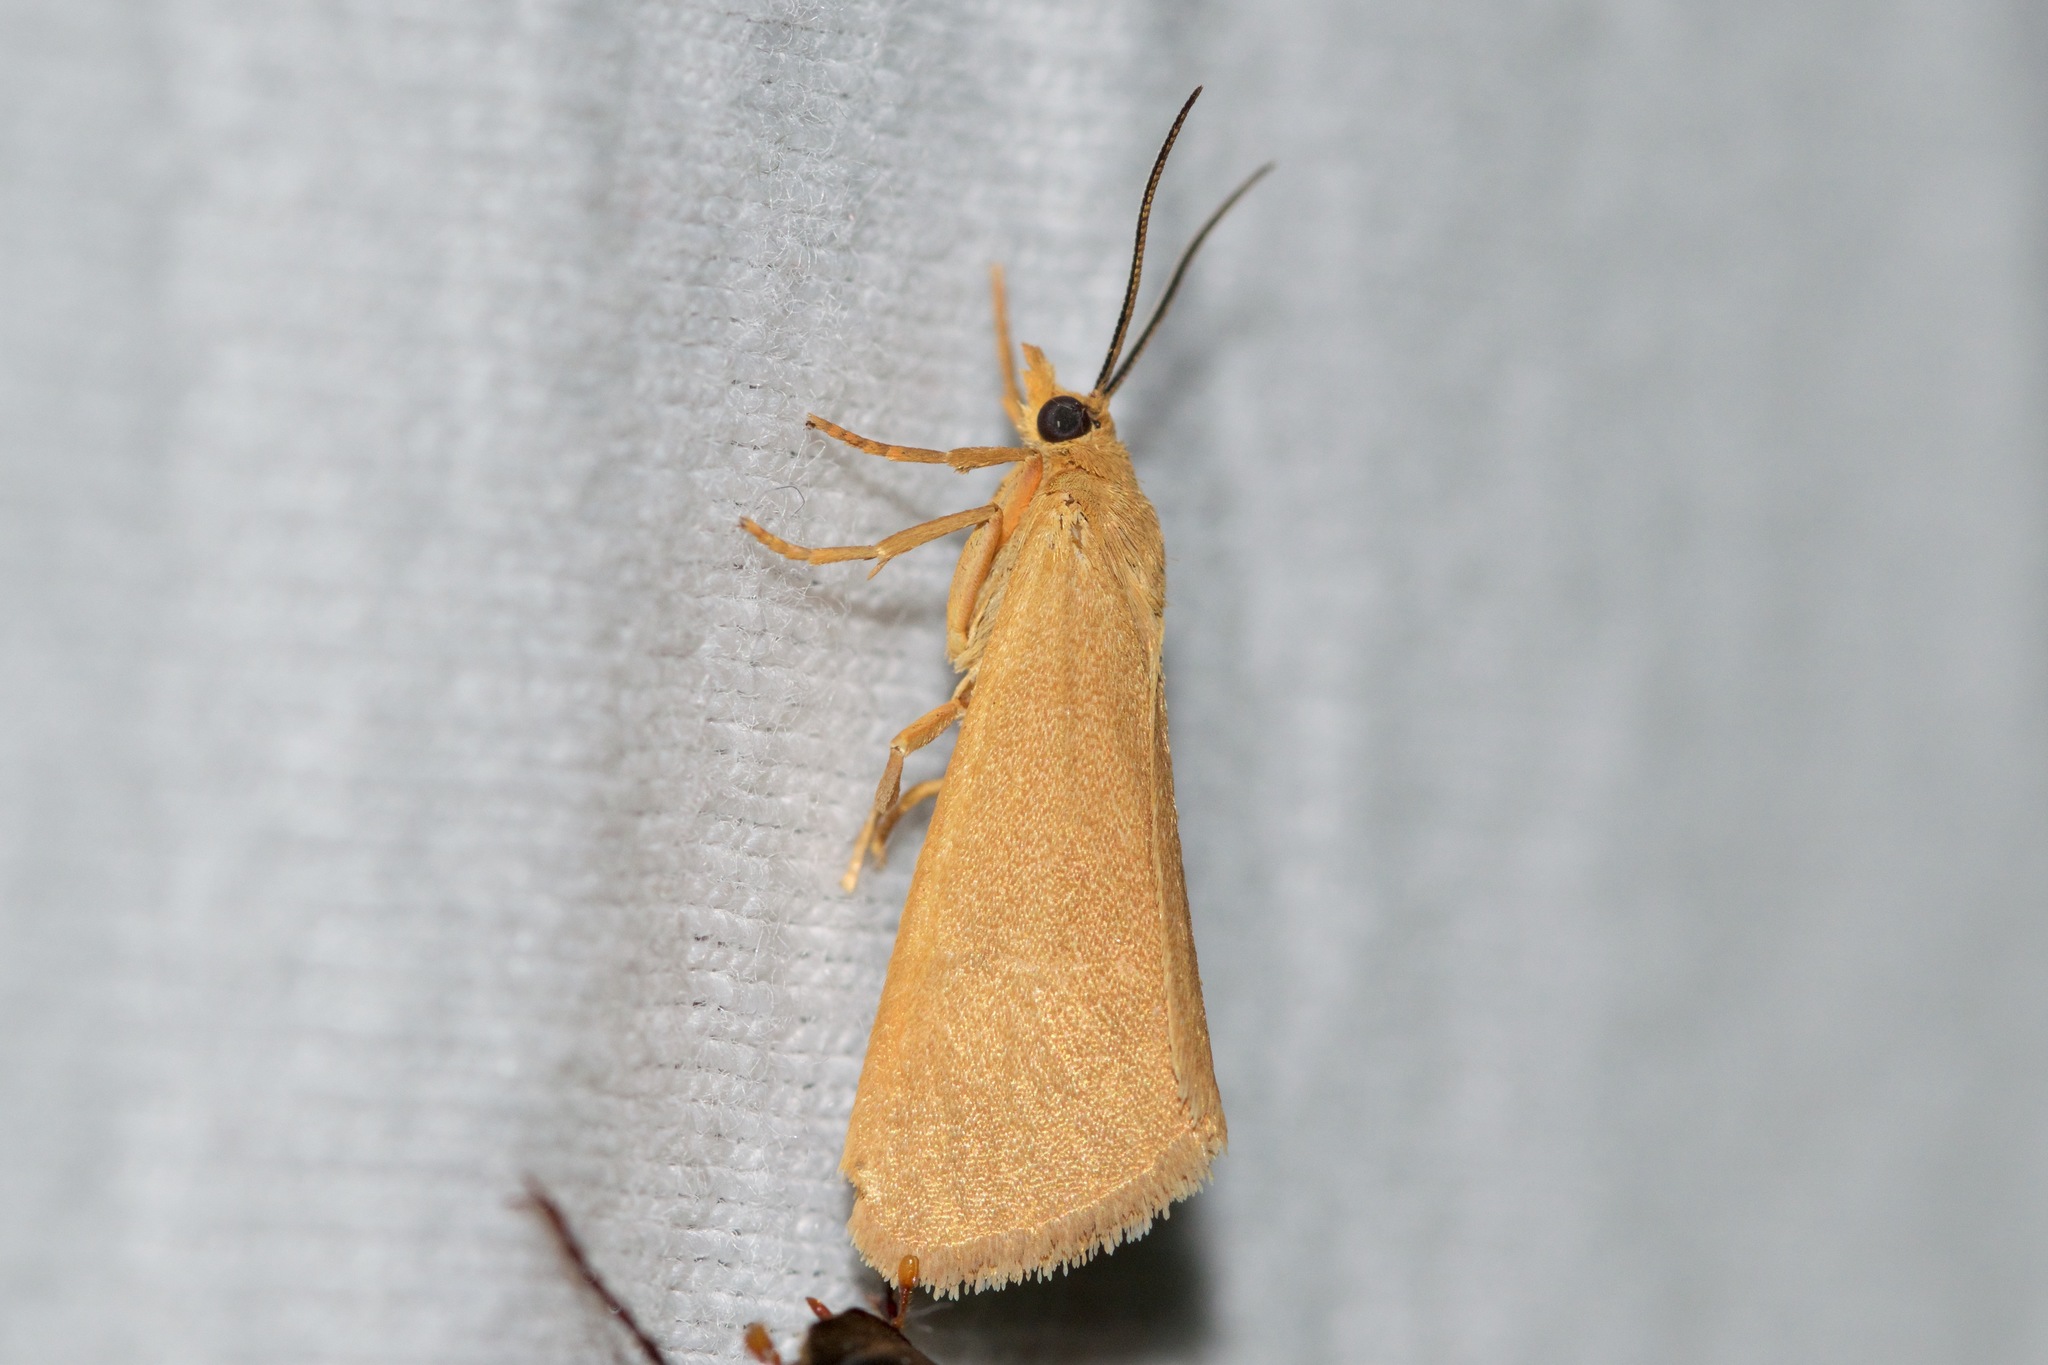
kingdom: Animalia
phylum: Arthropoda
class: Insecta
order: Lepidoptera
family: Erebidae
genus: Virbia
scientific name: Virbia aurantiaca
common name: Orange virbia moth
